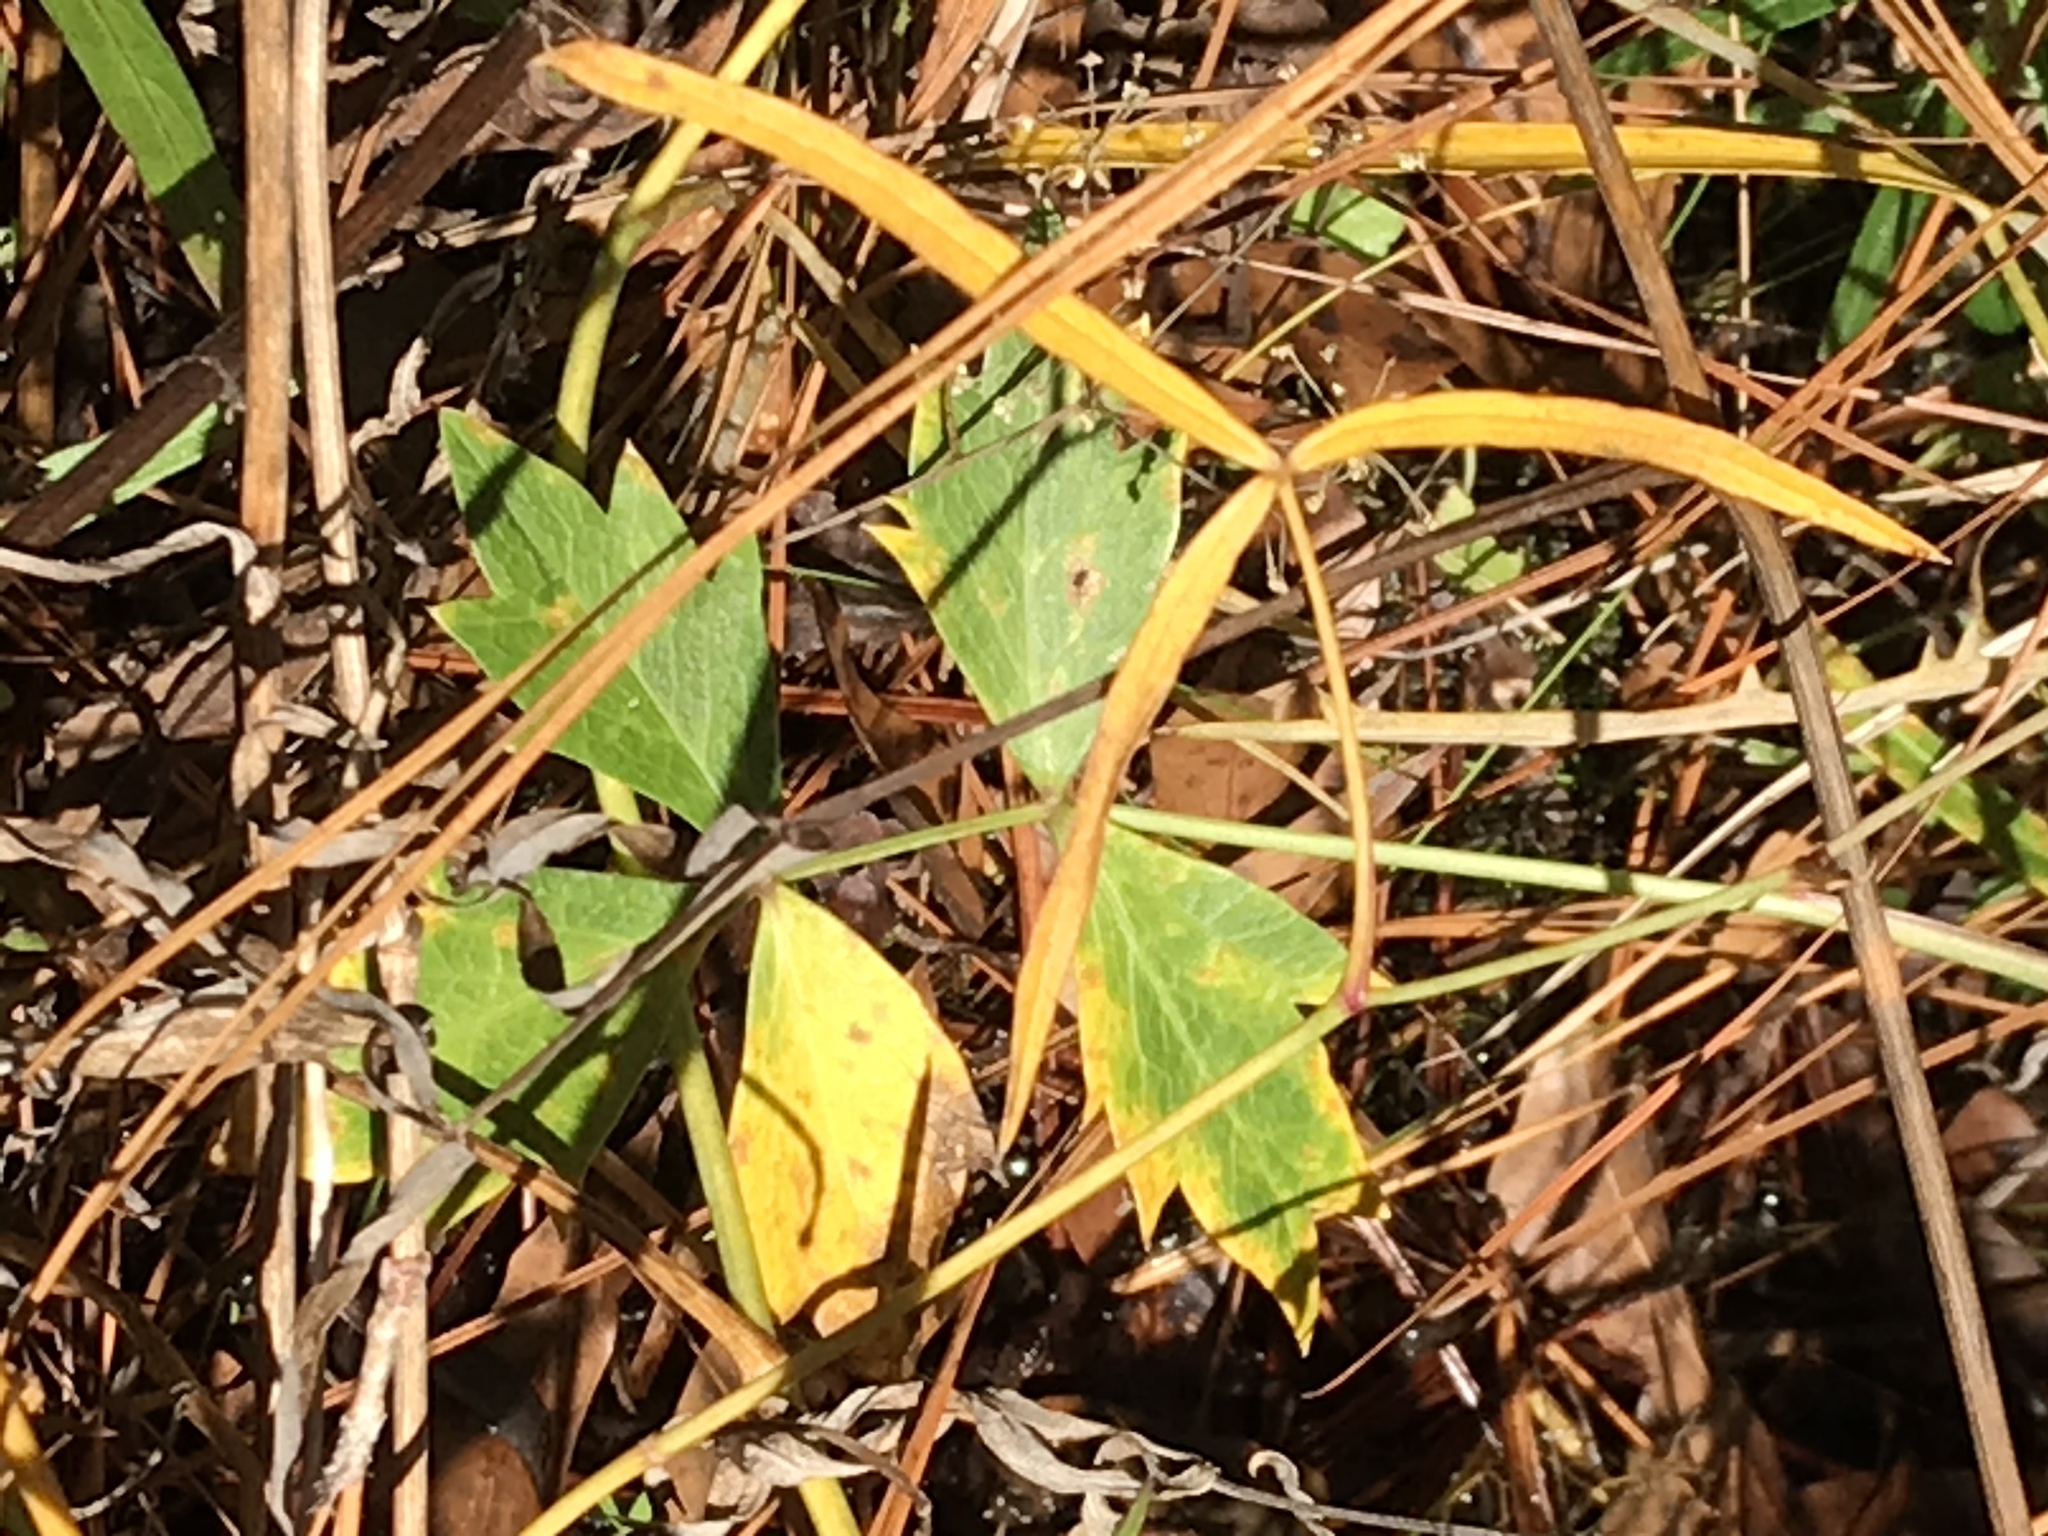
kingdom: Plantae
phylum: Tracheophyta
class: Magnoliopsida
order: Apiales
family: Apiaceae
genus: Oxypolis
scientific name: Oxypolis rigidior
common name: Cowbane
